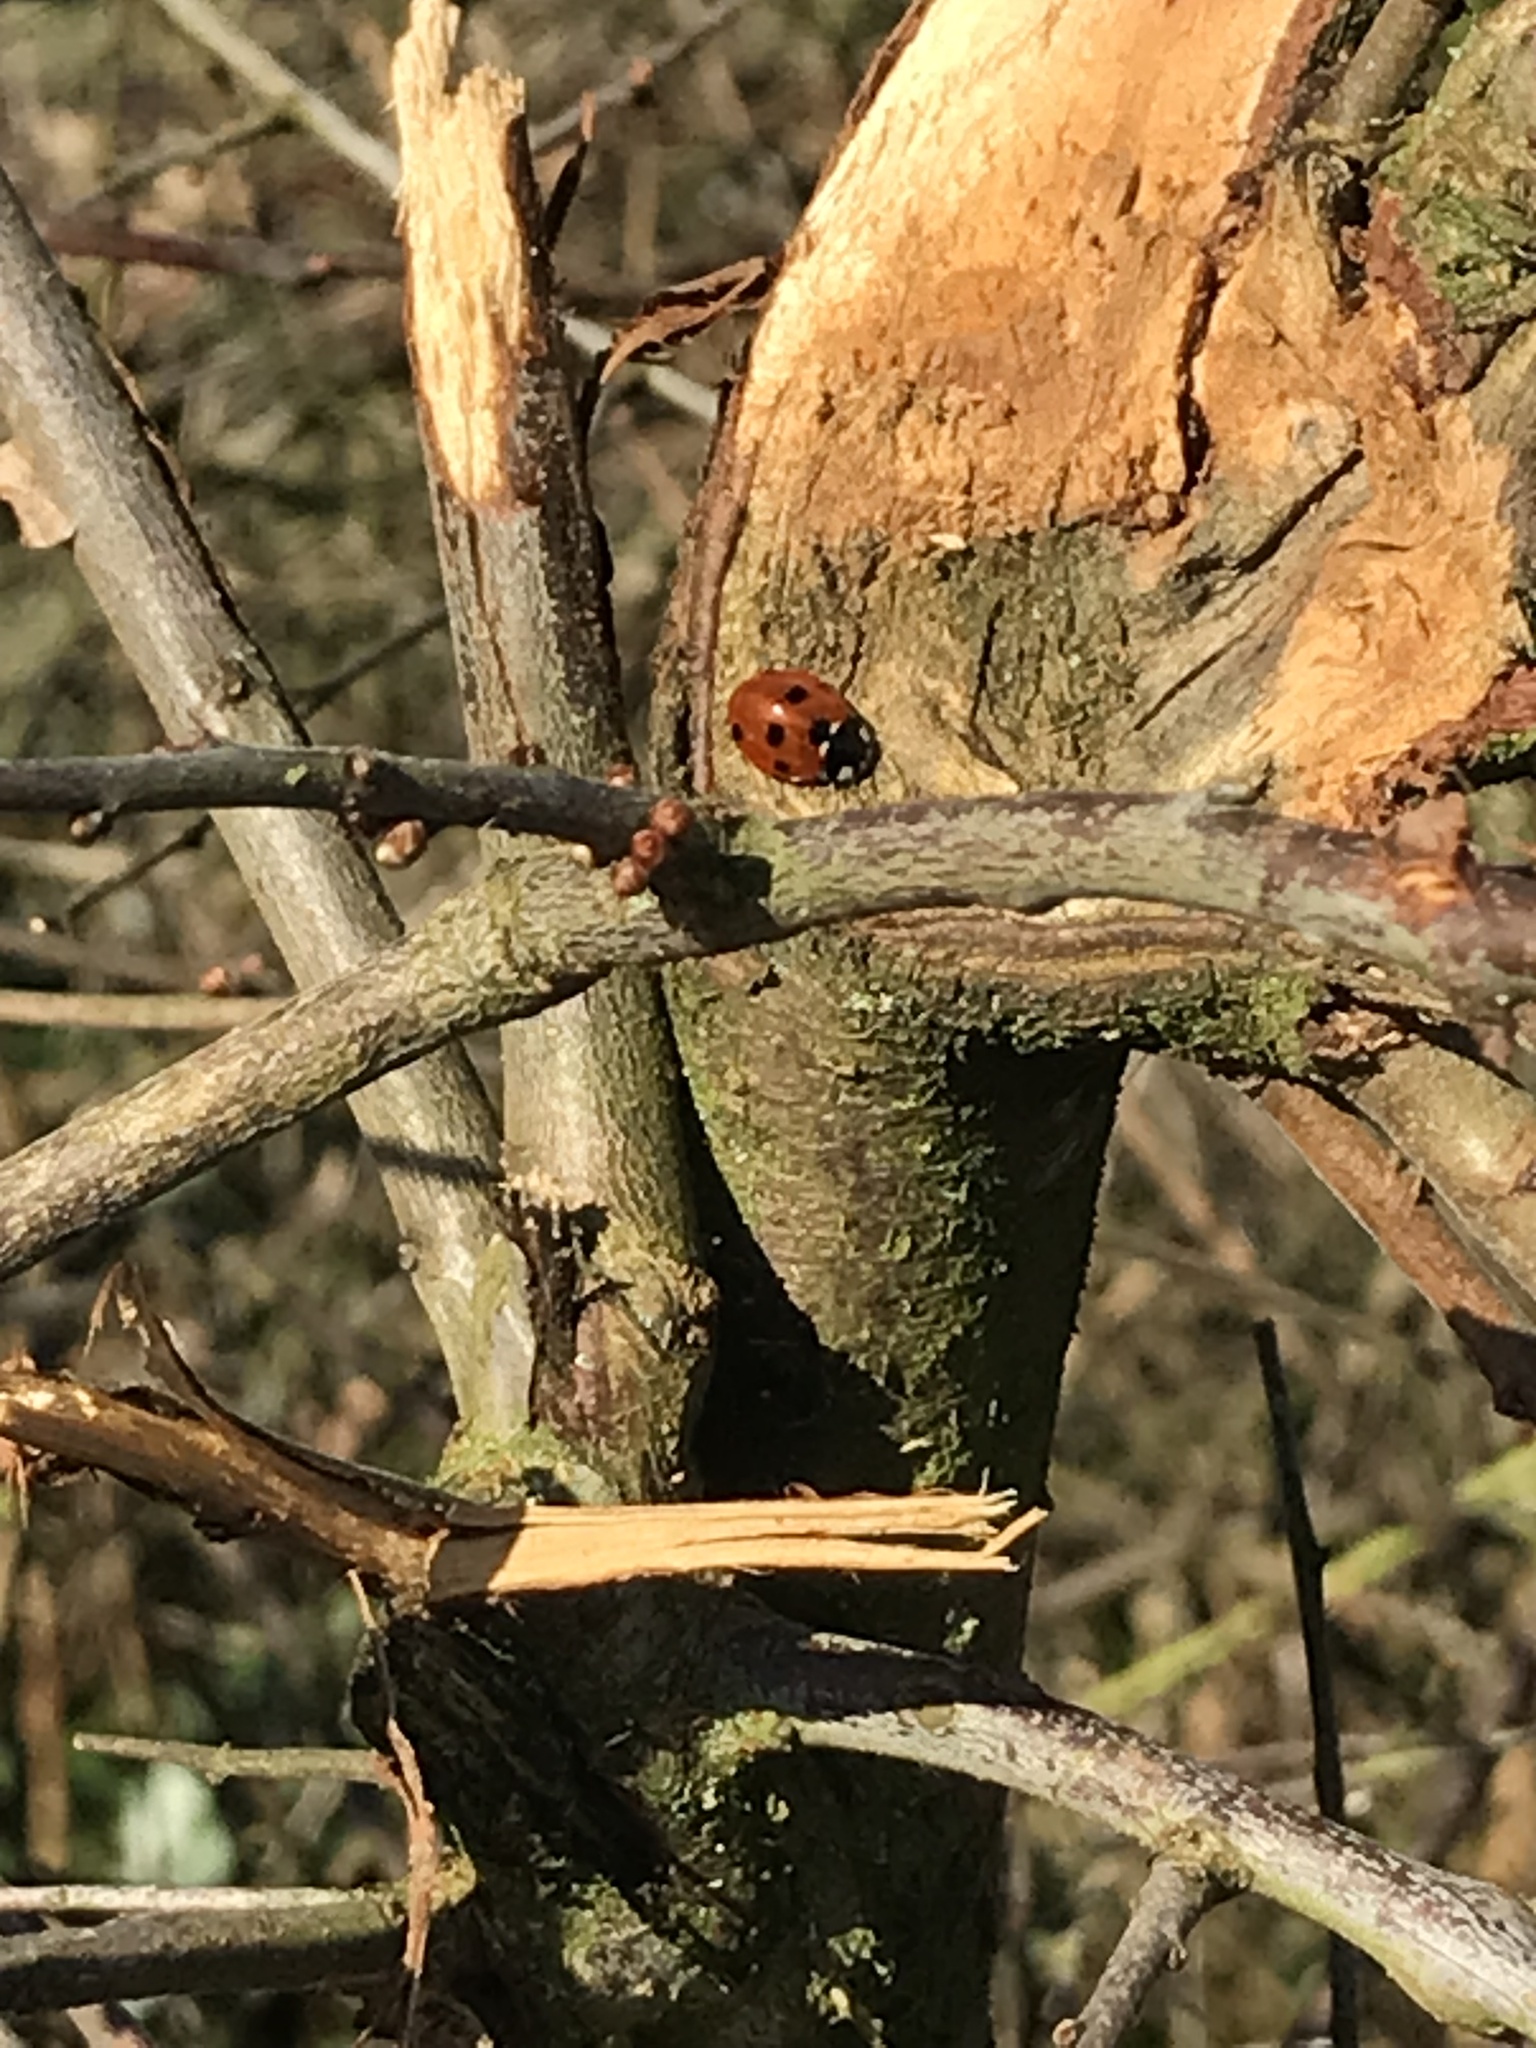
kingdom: Animalia
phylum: Arthropoda
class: Insecta
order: Coleoptera
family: Coccinellidae
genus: Coccinella
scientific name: Coccinella septempunctata
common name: Sevenspotted lady beetle
